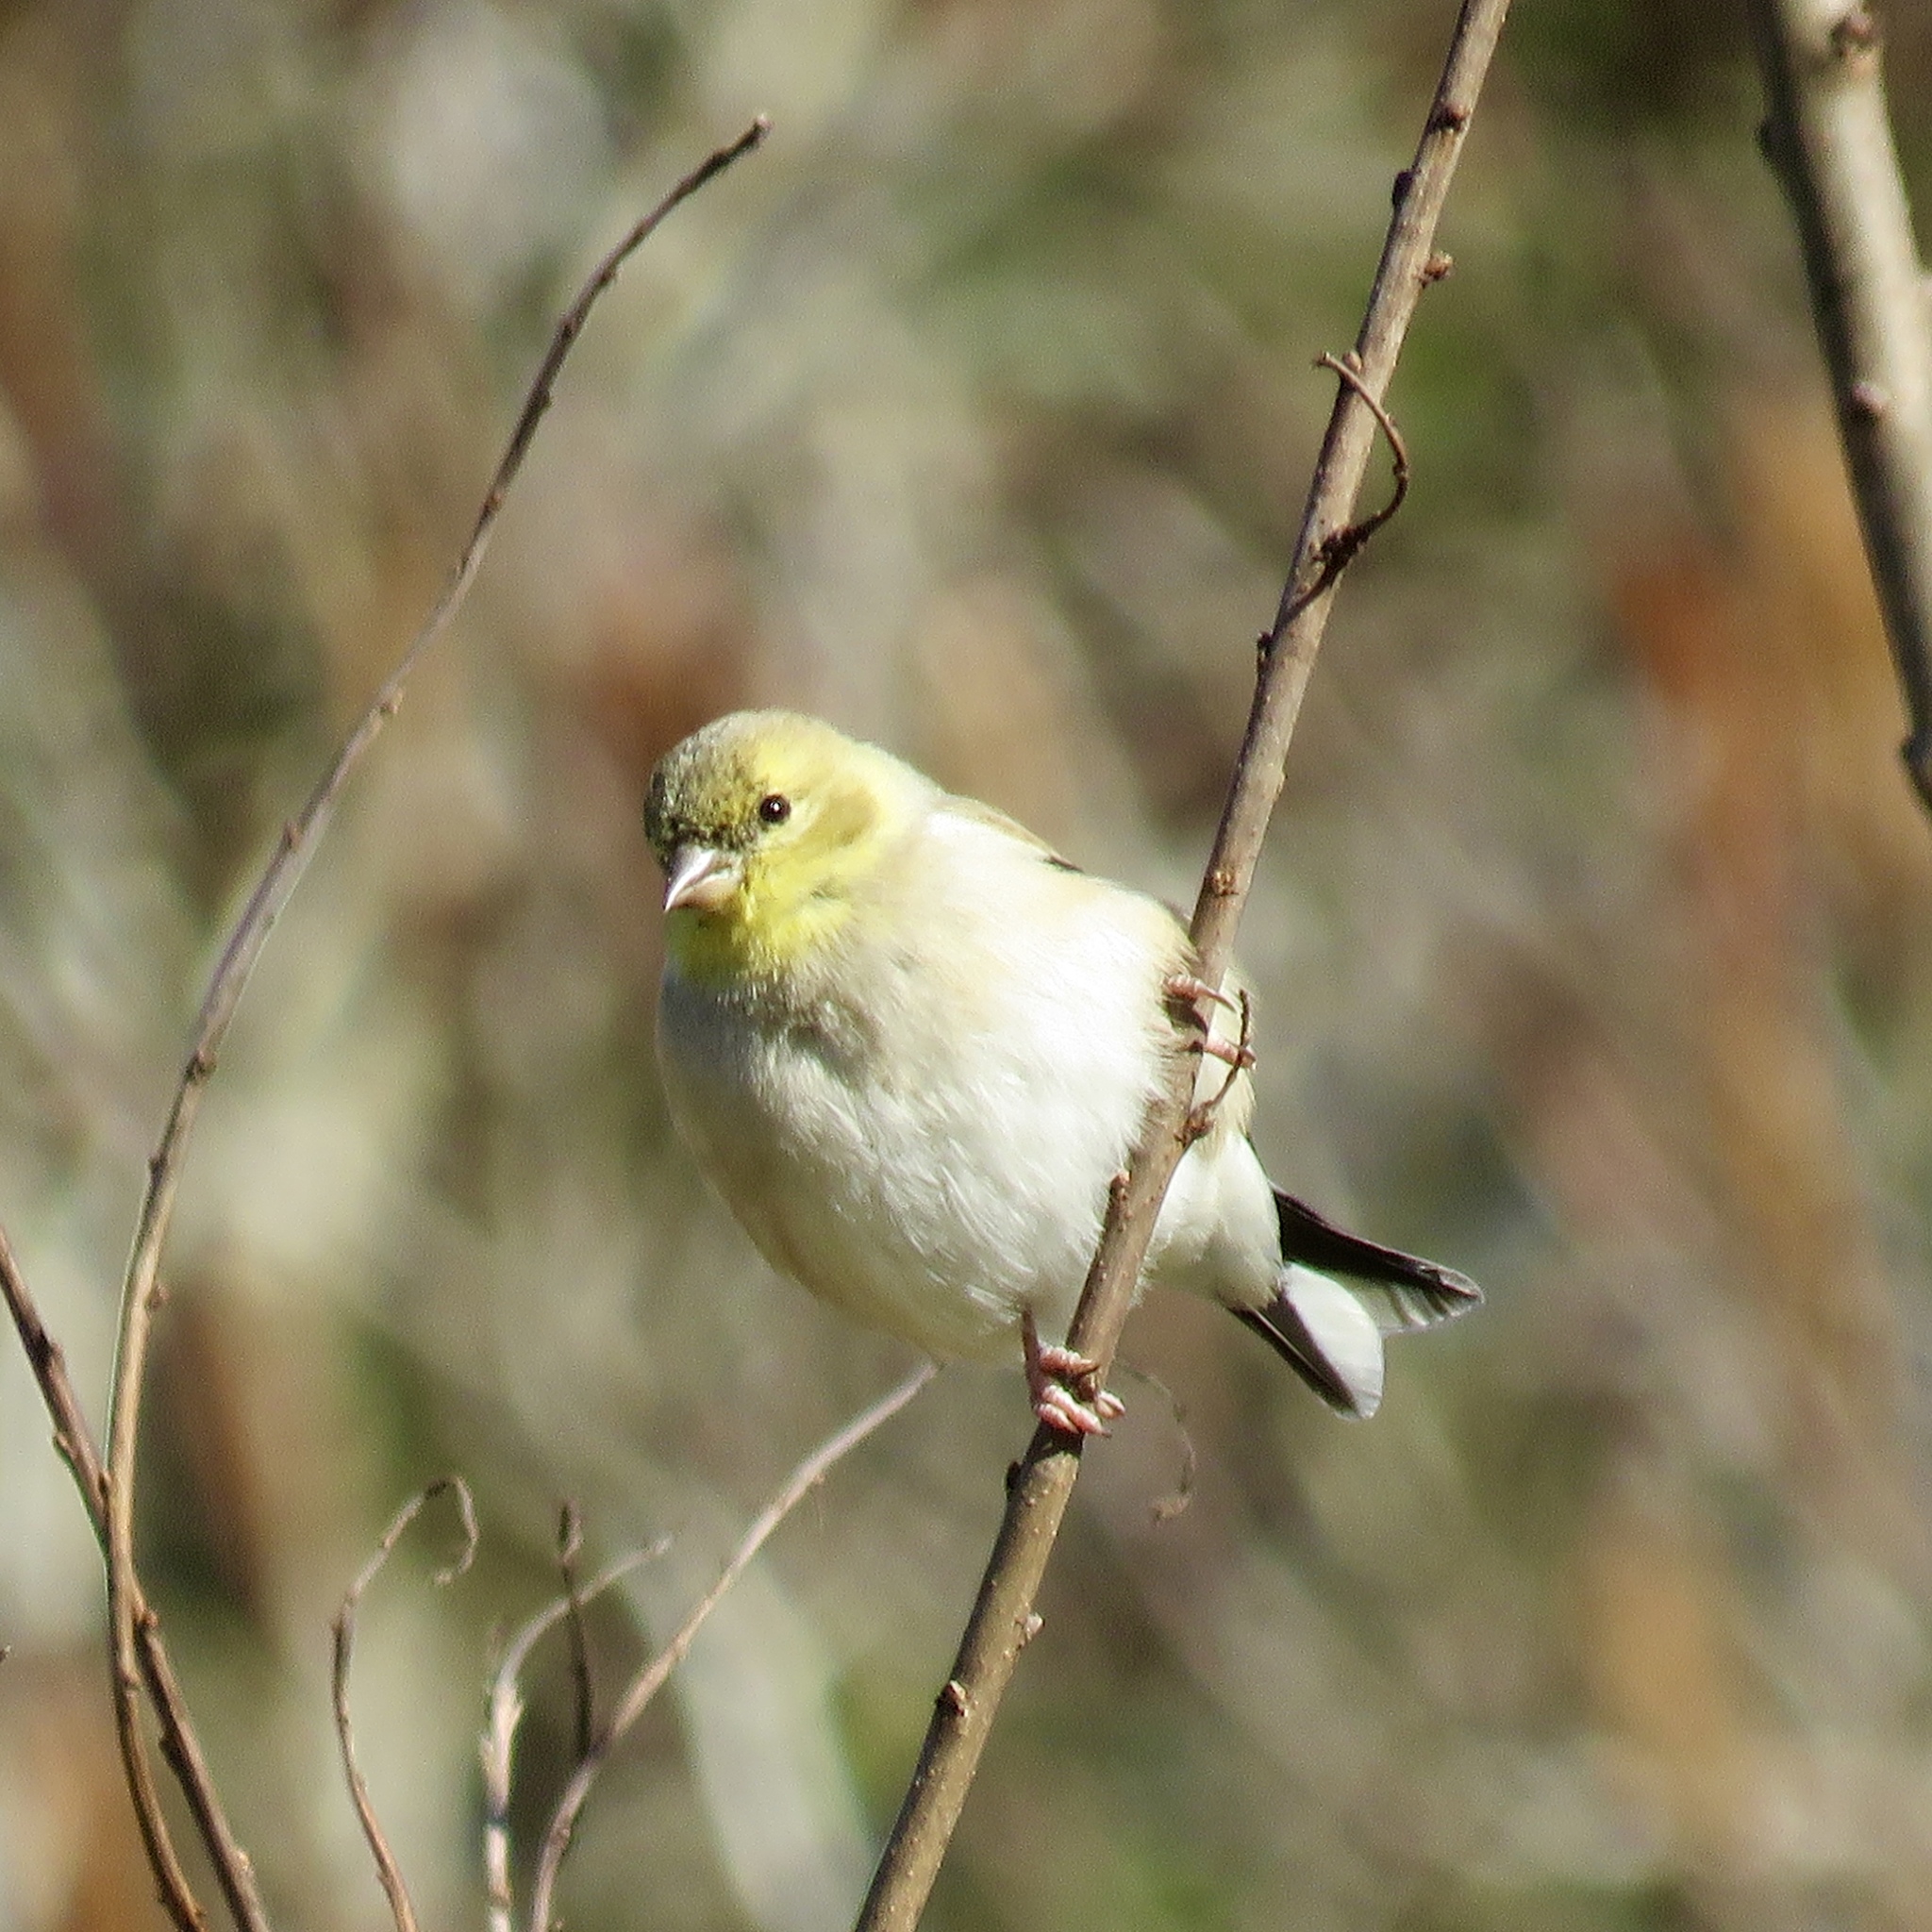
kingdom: Animalia
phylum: Chordata
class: Aves
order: Passeriformes
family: Fringillidae
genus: Spinus
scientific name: Spinus tristis
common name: American goldfinch
